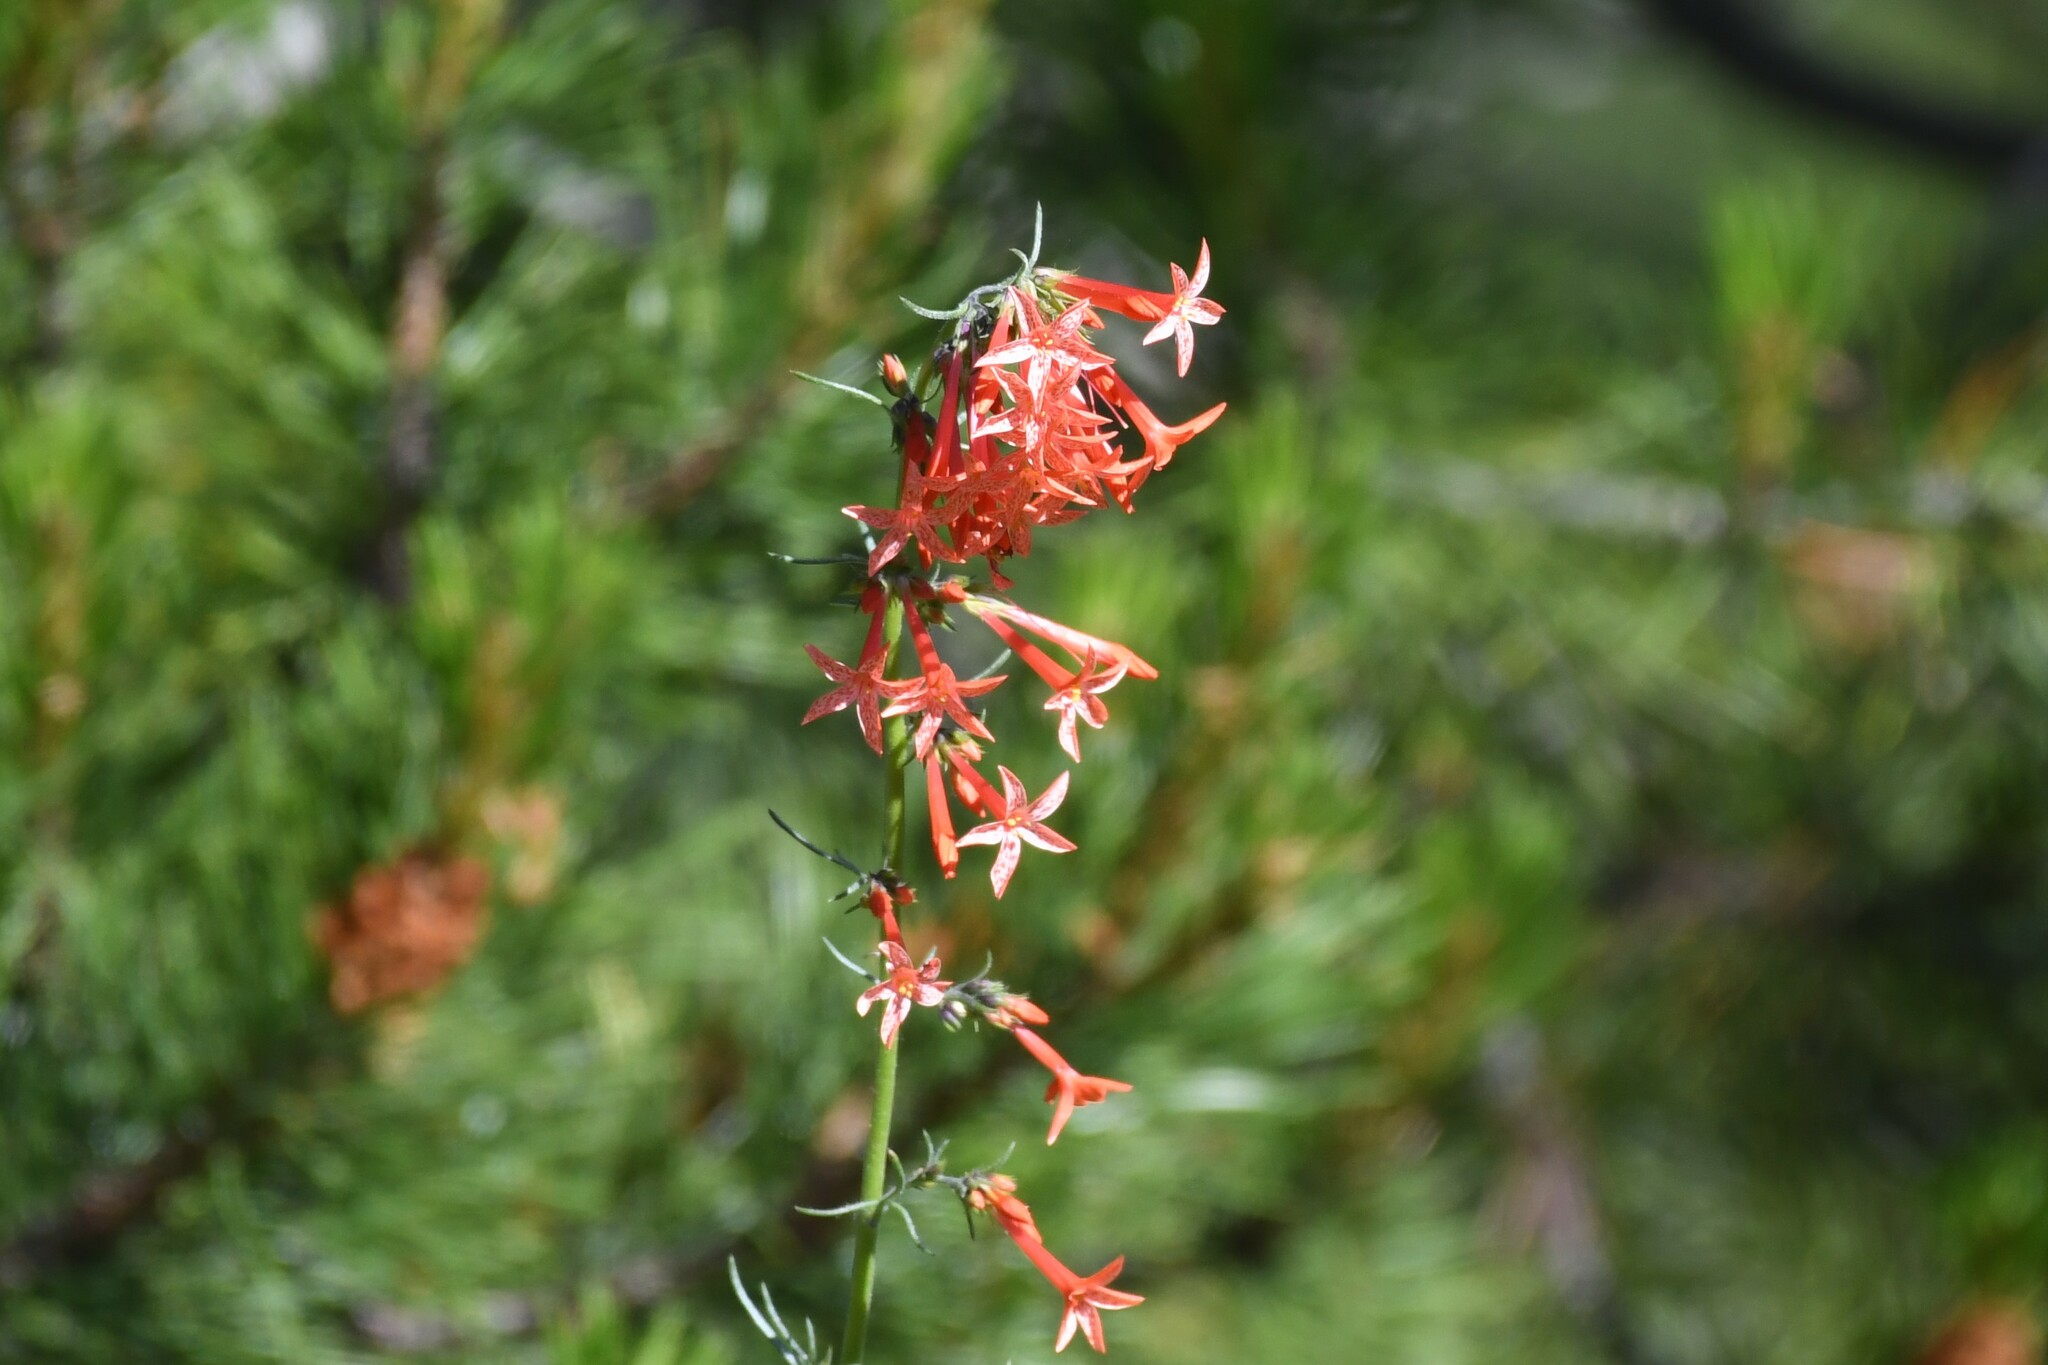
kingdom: Plantae
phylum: Tracheophyta
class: Magnoliopsida
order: Ericales
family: Polemoniaceae
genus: Ipomopsis
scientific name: Ipomopsis aggregata
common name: Scarlet gilia
